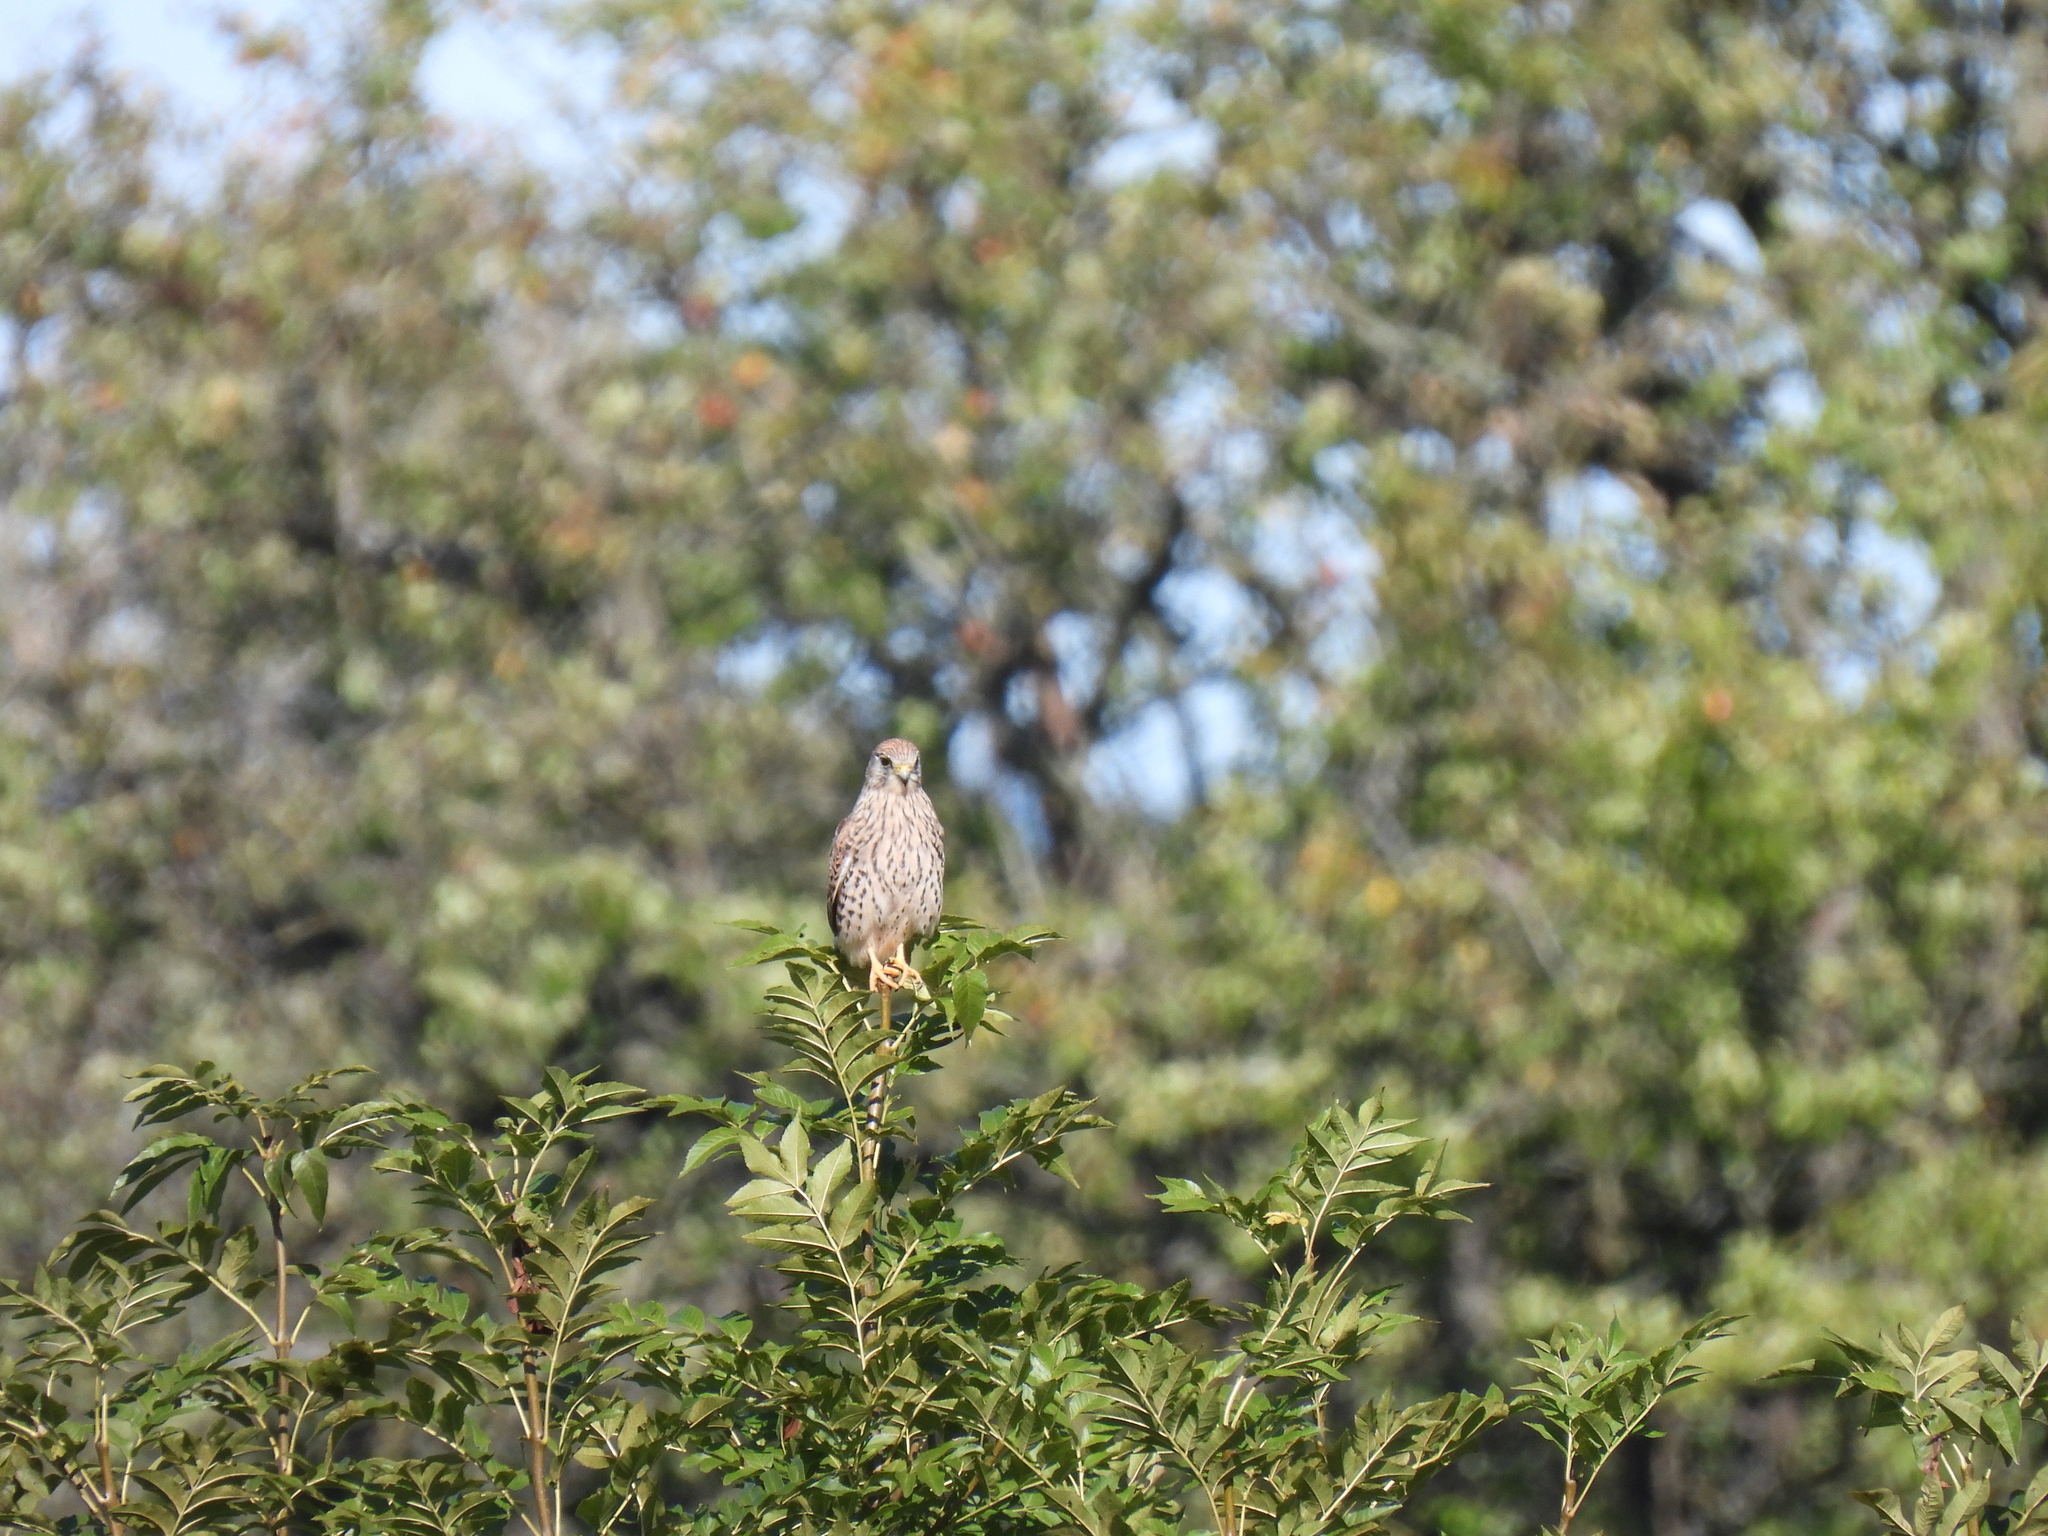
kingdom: Animalia
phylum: Chordata
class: Aves
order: Falconiformes
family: Falconidae
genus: Falco
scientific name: Falco tinnunculus
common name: Common kestrel
